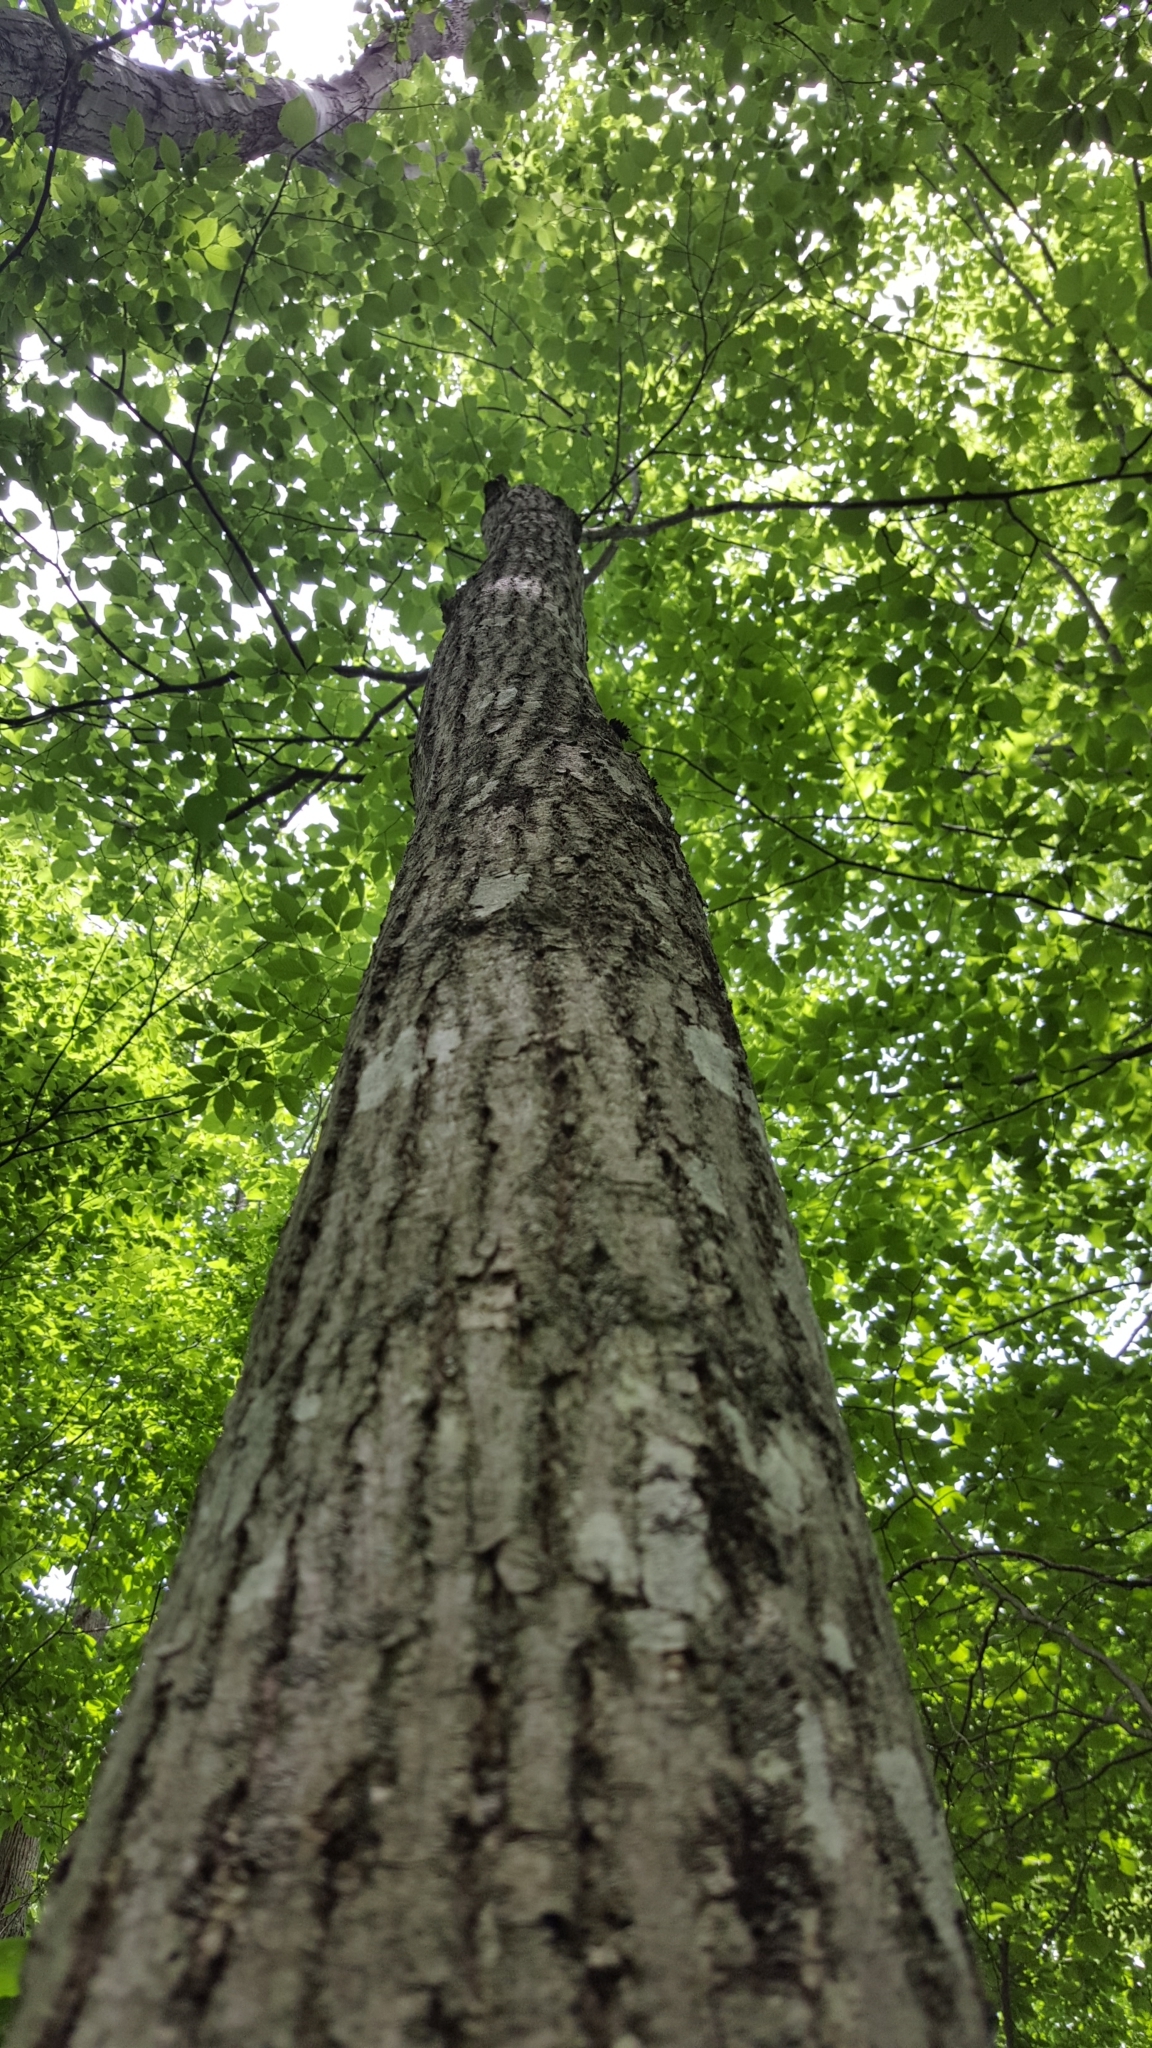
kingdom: Plantae
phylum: Tracheophyta
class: Magnoliopsida
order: Malvales
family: Malvaceae
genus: Tilia
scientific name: Tilia americana
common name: Basswood
